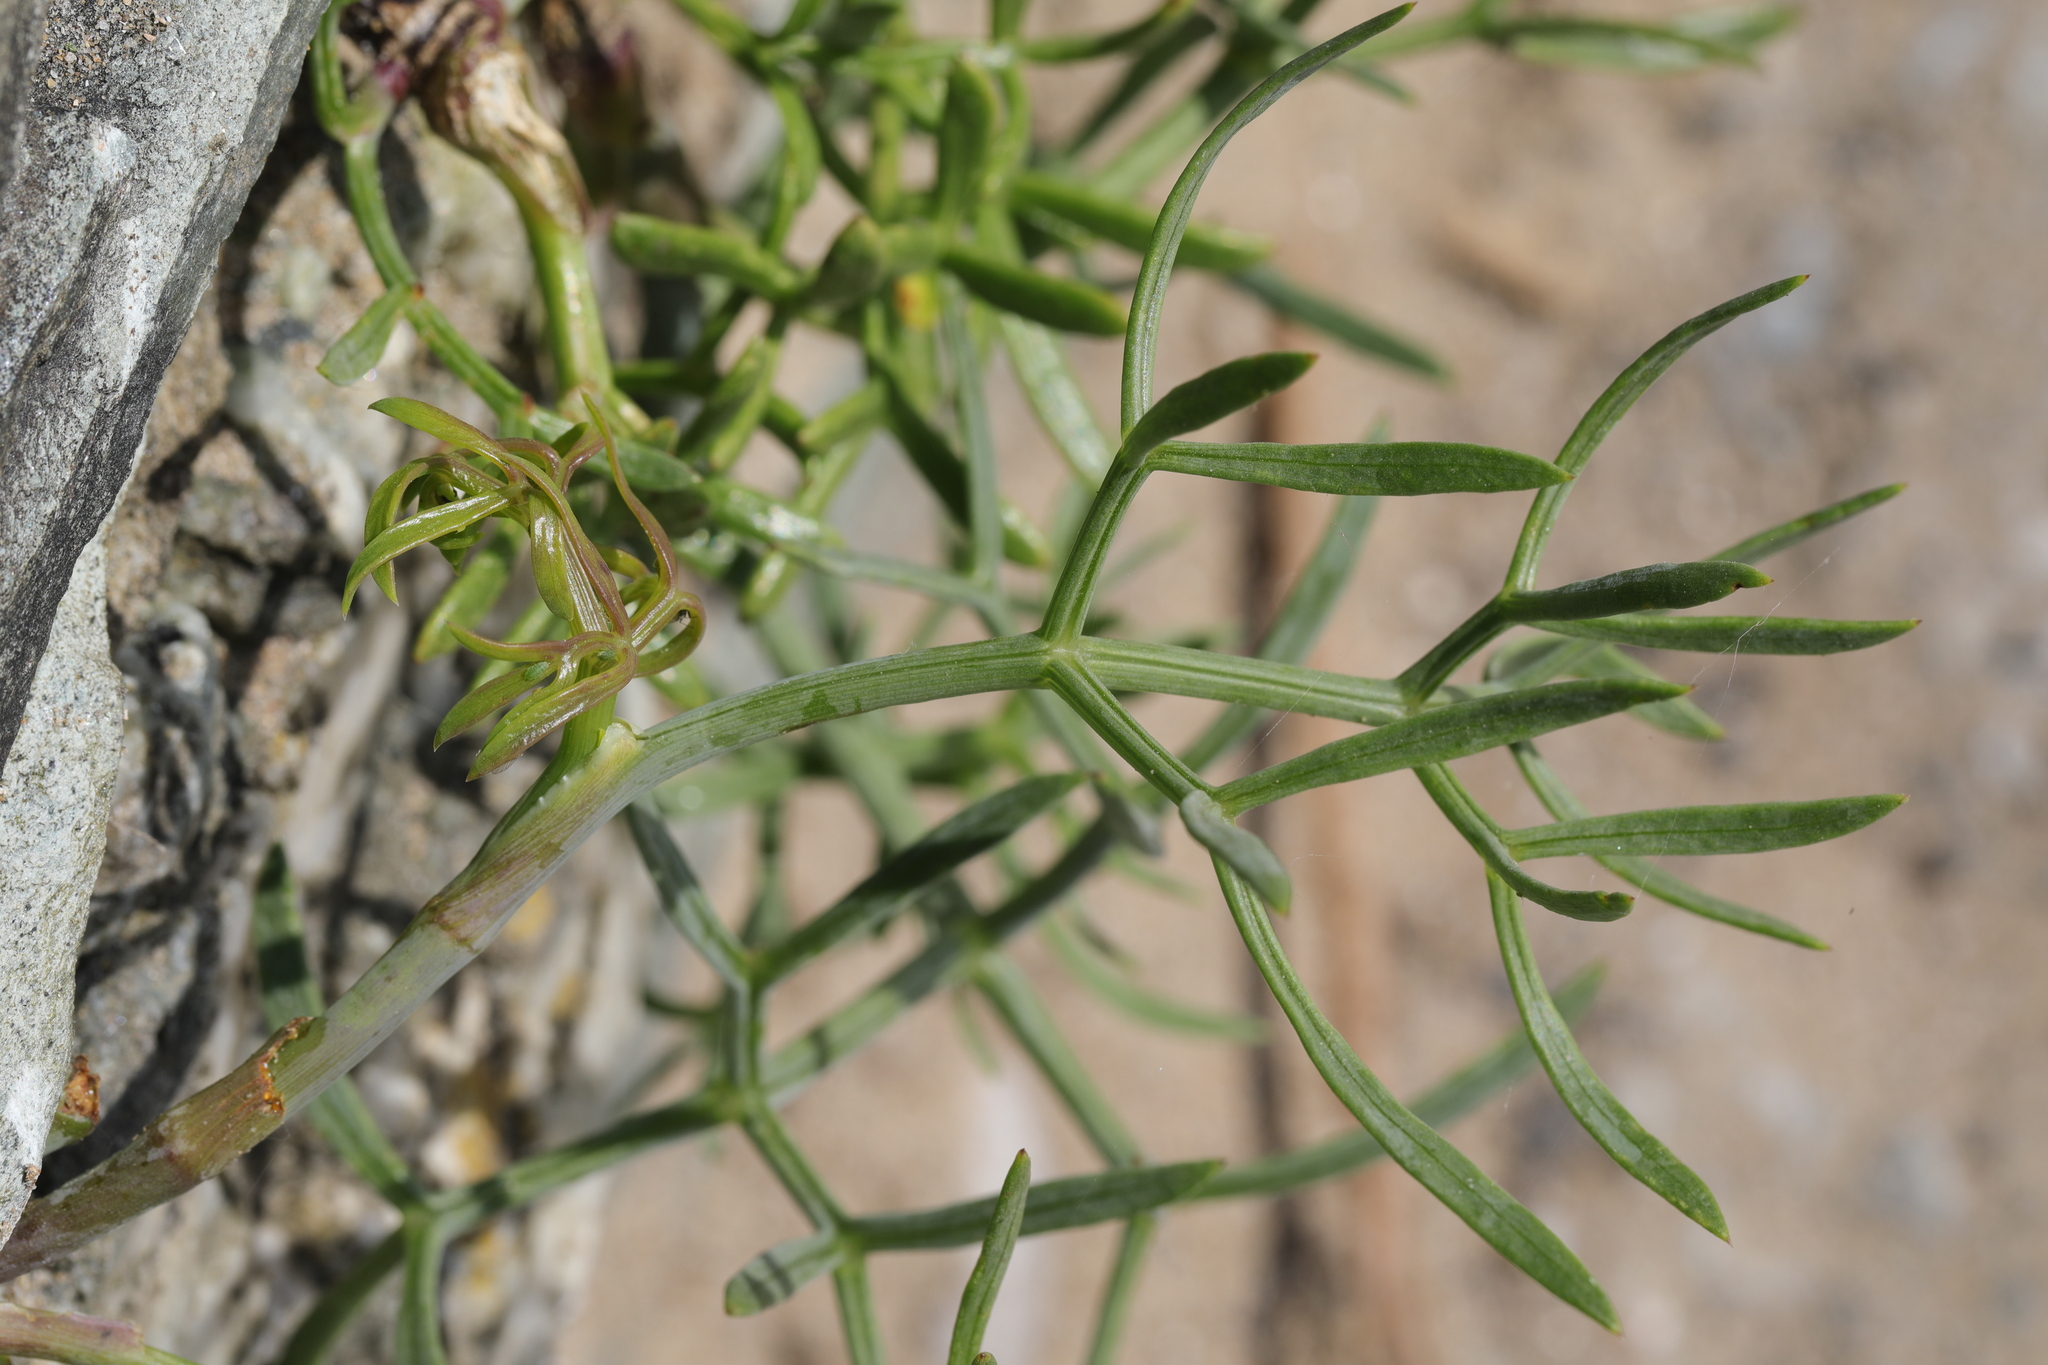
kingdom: Plantae
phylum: Tracheophyta
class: Magnoliopsida
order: Apiales
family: Apiaceae
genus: Crithmum
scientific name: Crithmum maritimum
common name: Rock samphire
